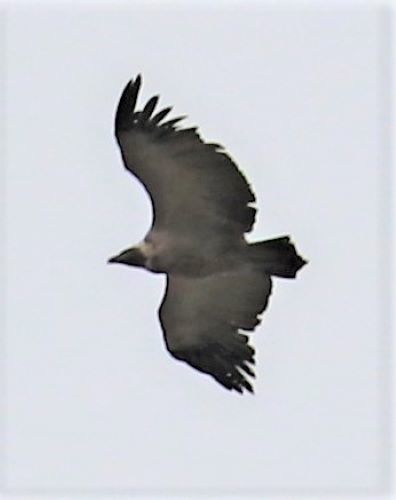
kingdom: Animalia
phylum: Chordata
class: Aves
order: Accipitriformes
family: Accipitridae
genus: Gyps
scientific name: Gyps coprotheres
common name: Cape vulture
